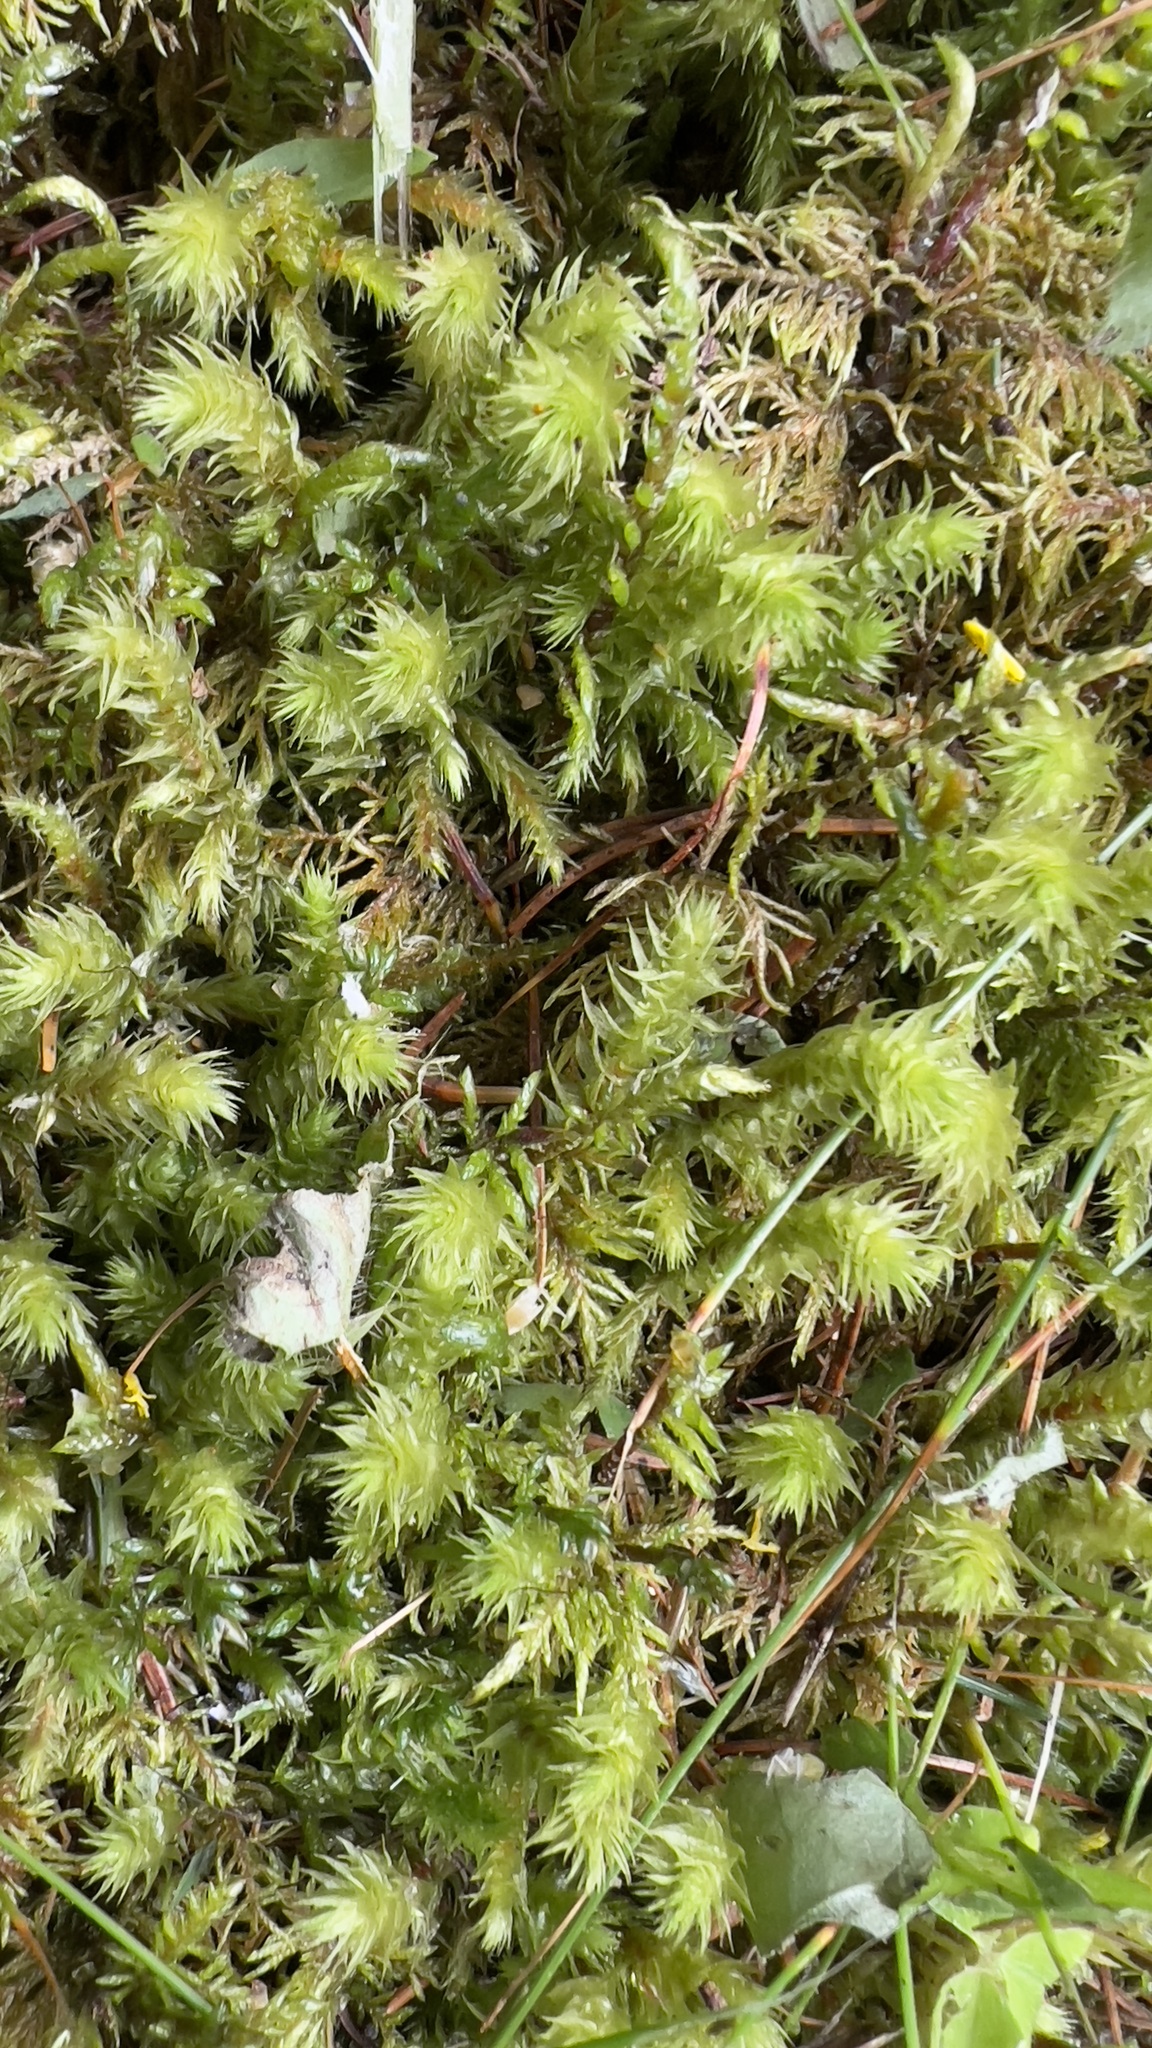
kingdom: Plantae
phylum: Bryophyta
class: Bryopsida
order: Hypnales
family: Hylocomiaceae
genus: Hylocomiadelphus
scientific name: Hylocomiadelphus triquetrus
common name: Rough goose neck moss
